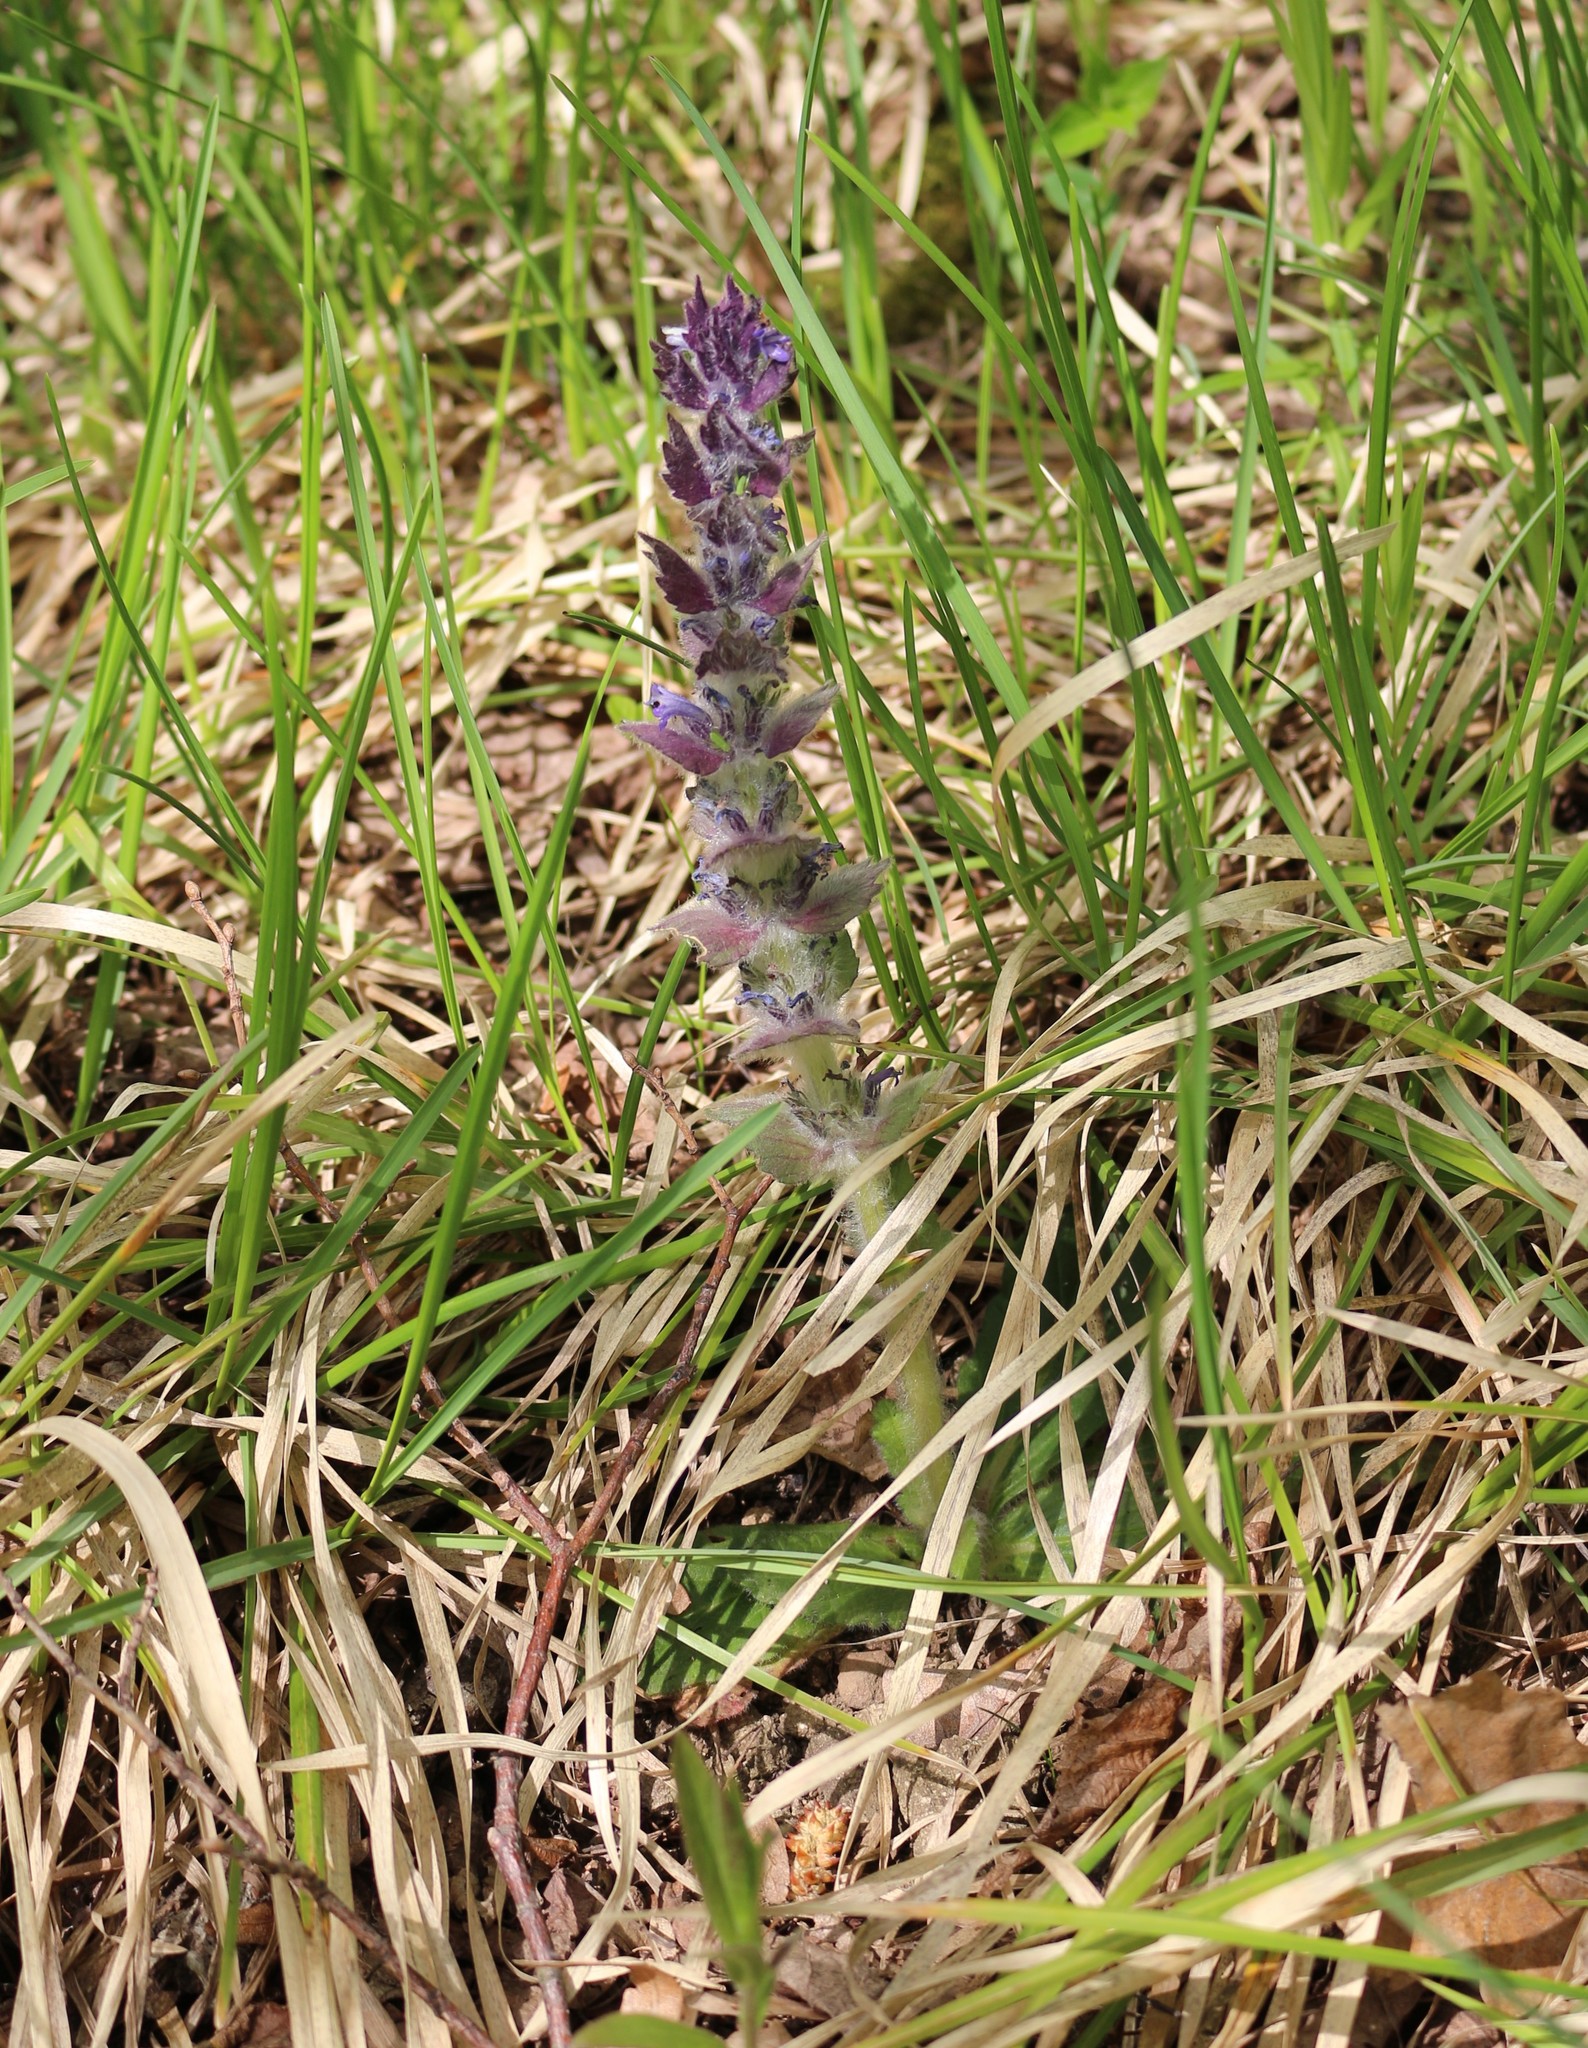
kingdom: Plantae
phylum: Tracheophyta
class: Magnoliopsida
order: Lamiales
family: Lamiaceae
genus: Ajuga
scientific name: Ajuga orientalis
